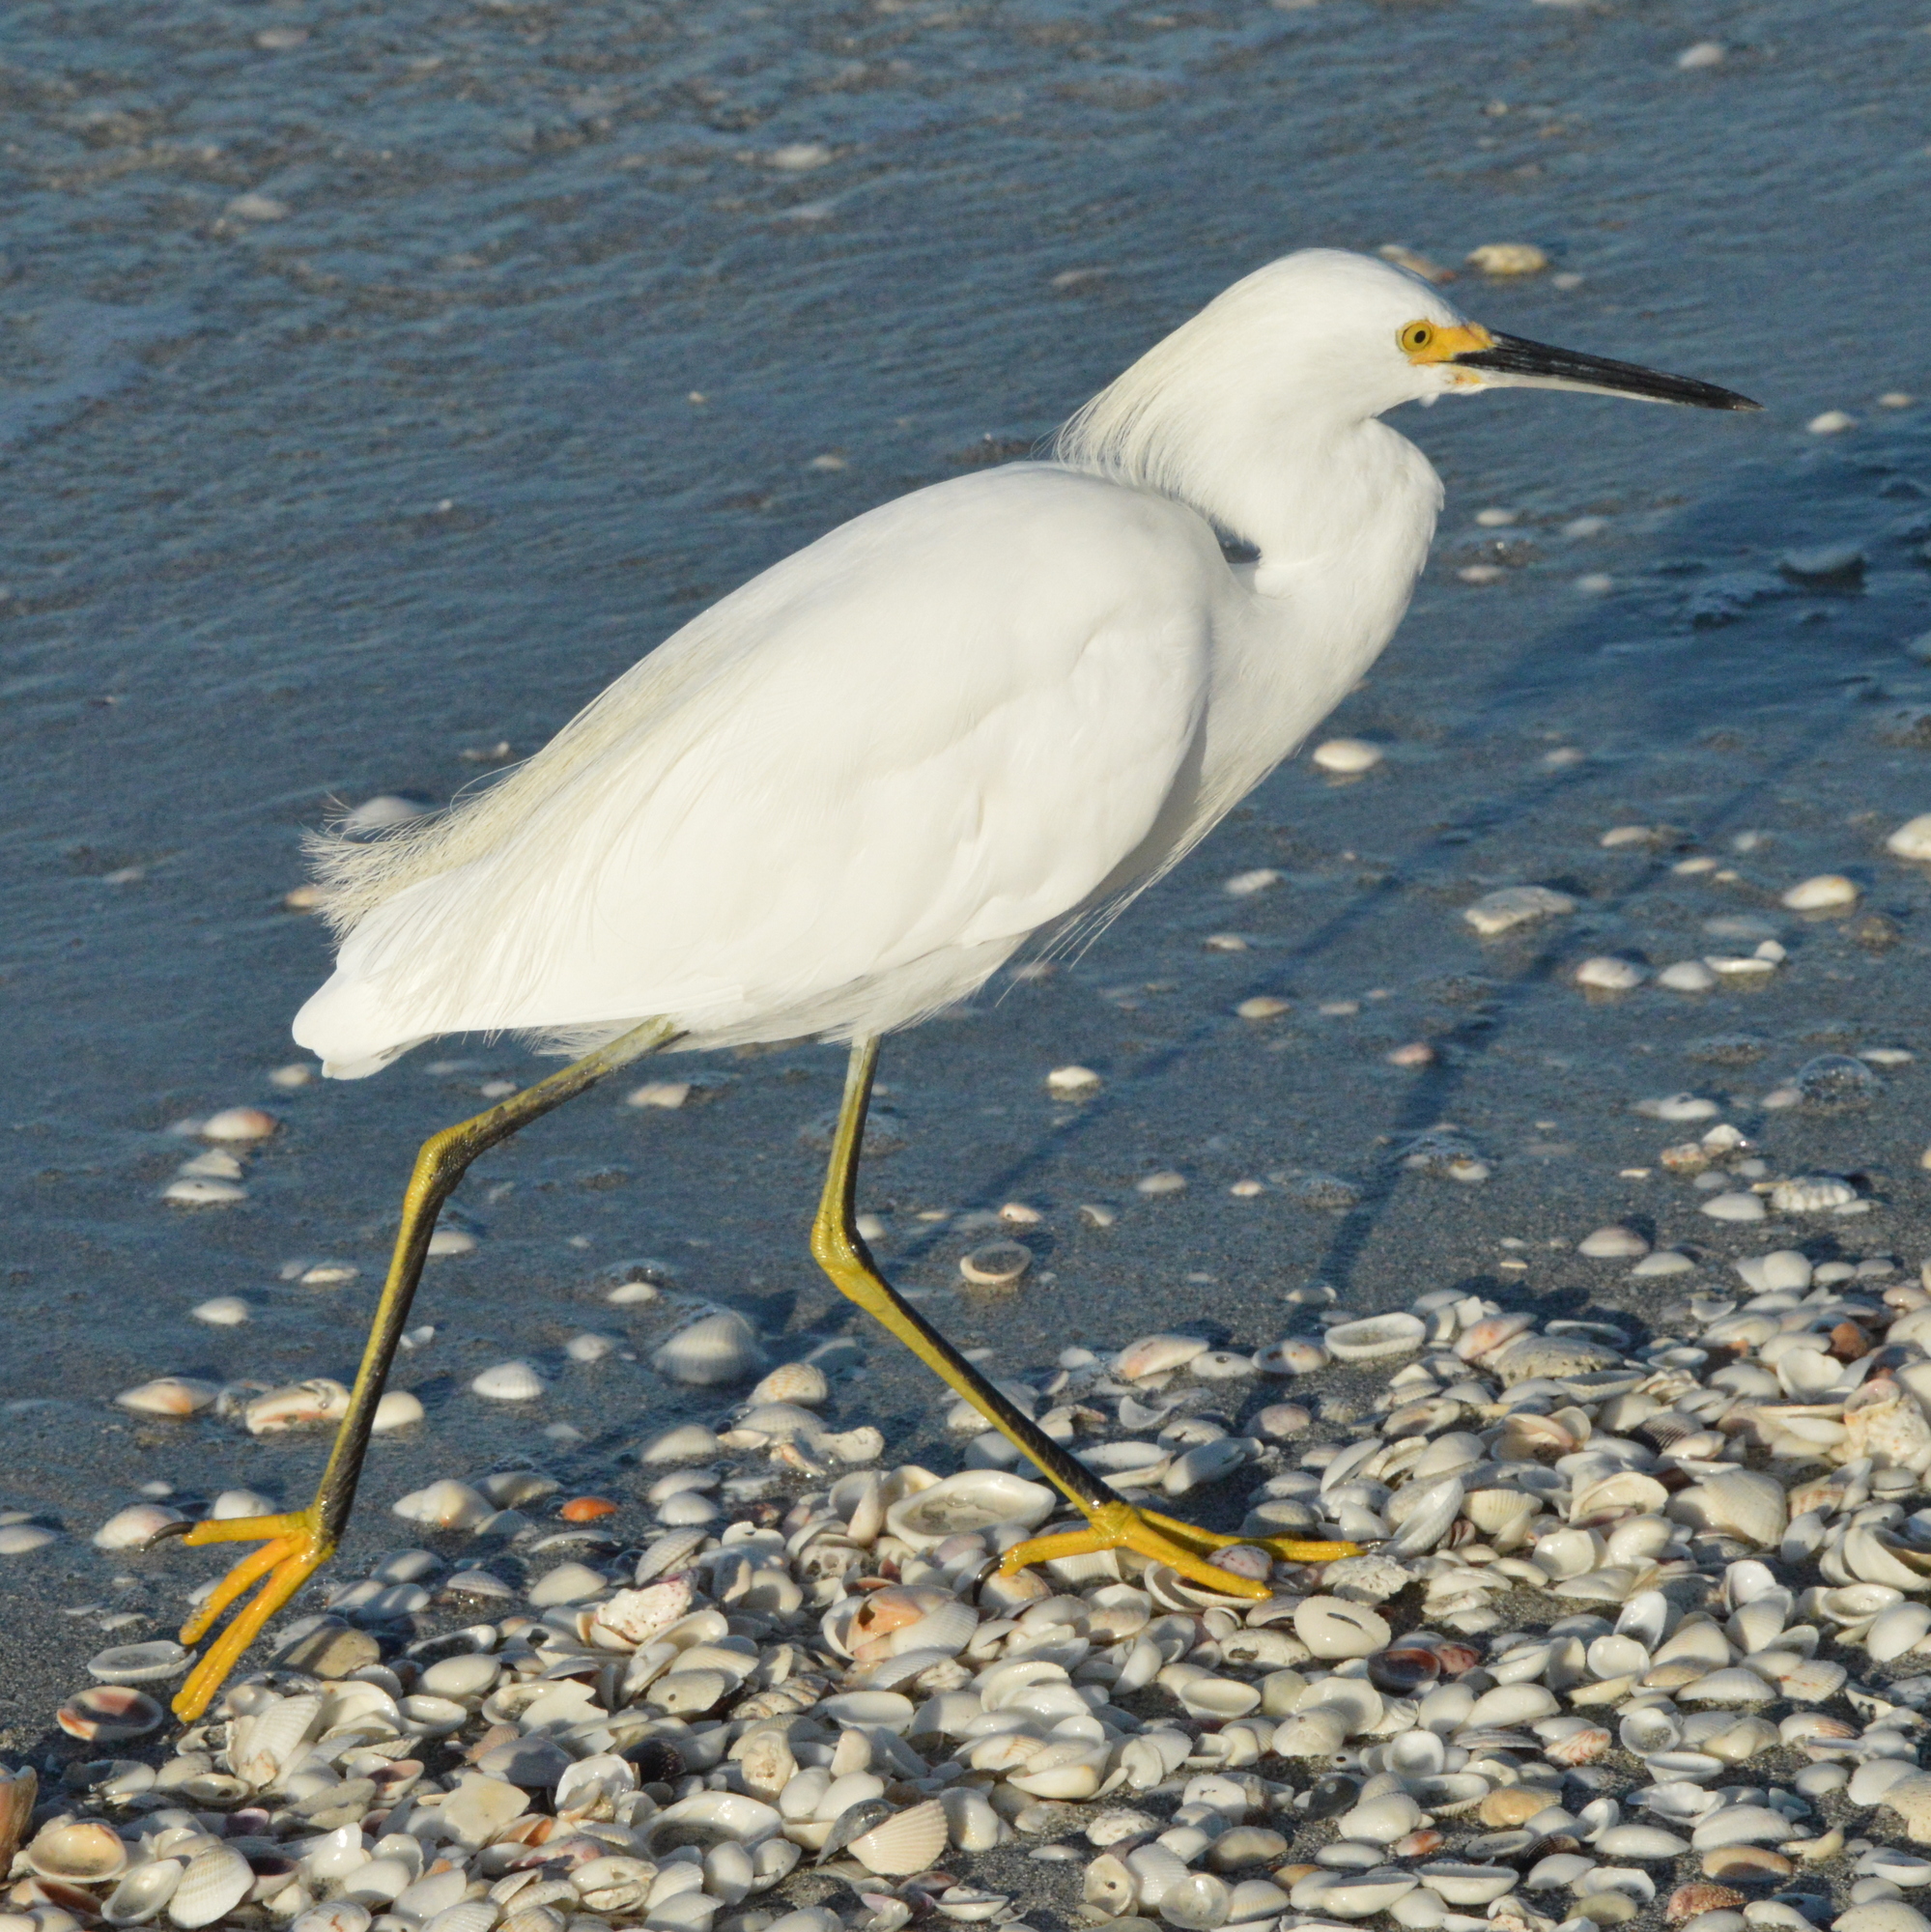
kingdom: Animalia
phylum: Chordata
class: Aves
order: Pelecaniformes
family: Ardeidae
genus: Egretta
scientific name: Egretta thula
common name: Snowy egret
